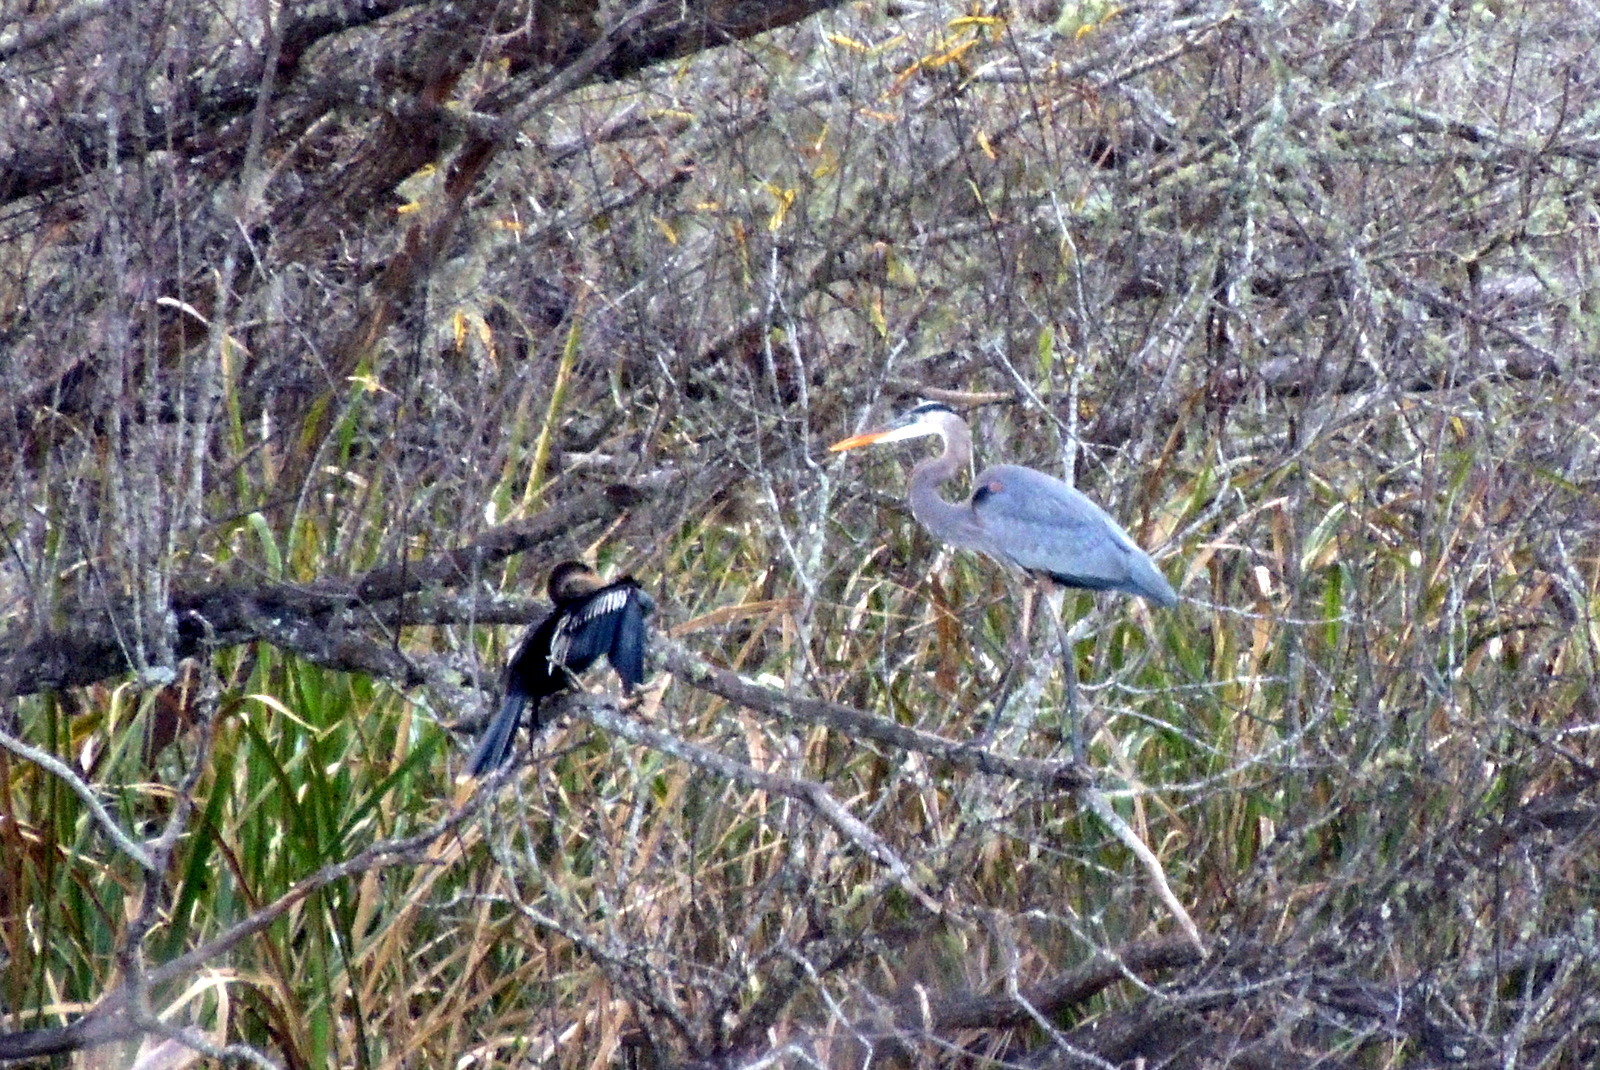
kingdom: Animalia
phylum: Chordata
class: Aves
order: Pelecaniformes
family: Ardeidae
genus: Ardea
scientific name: Ardea herodias
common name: Great blue heron
